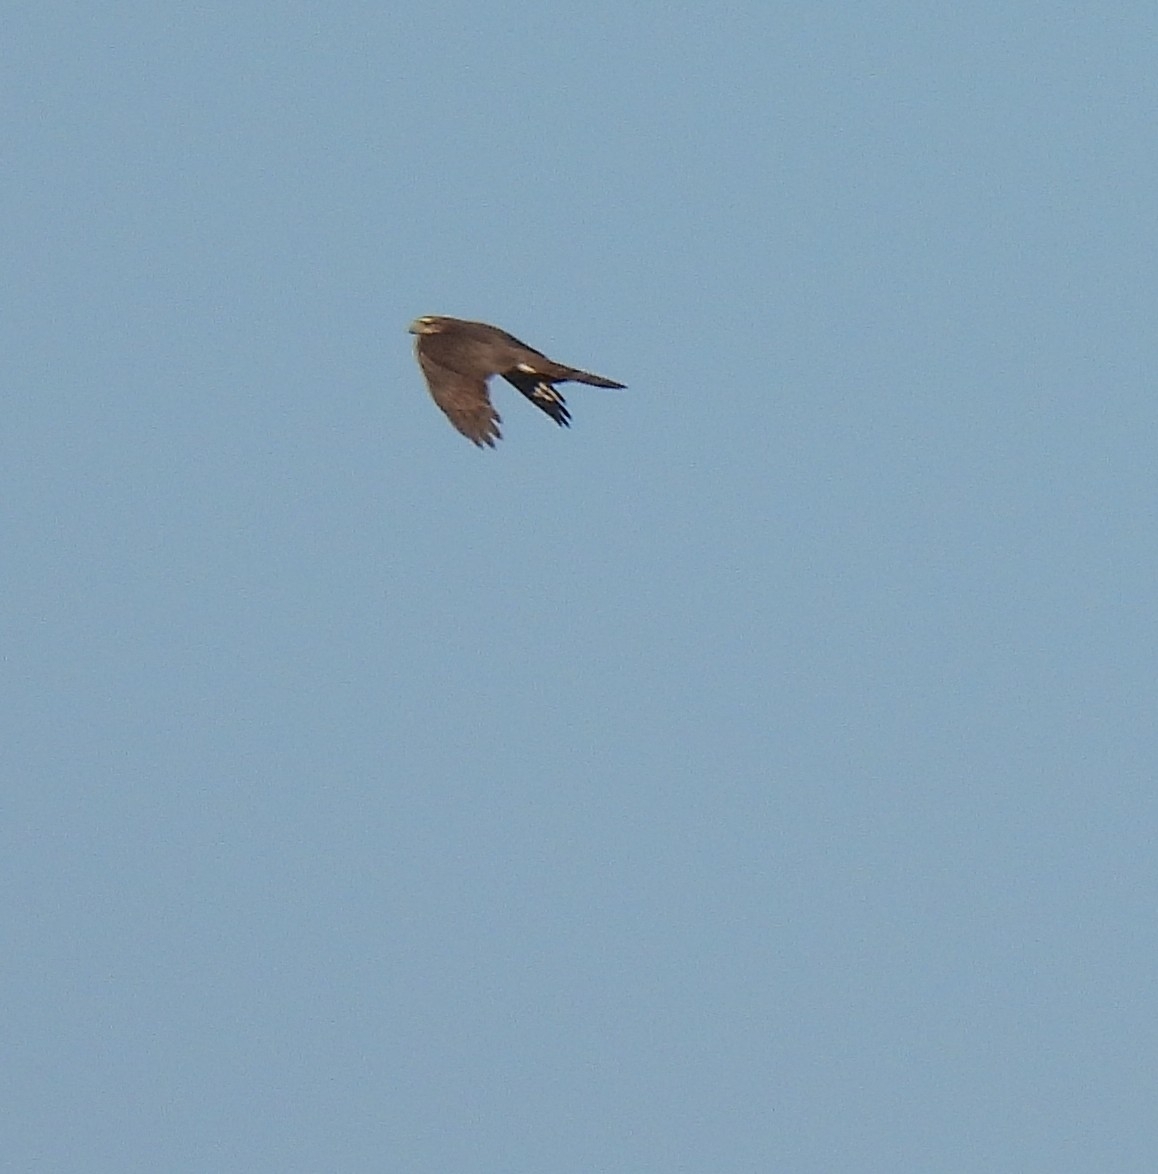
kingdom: Animalia
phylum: Chordata
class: Aves
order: Accipitriformes
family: Accipitridae
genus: Accipiter
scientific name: Accipiter nisus
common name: Eurasian sparrowhawk
